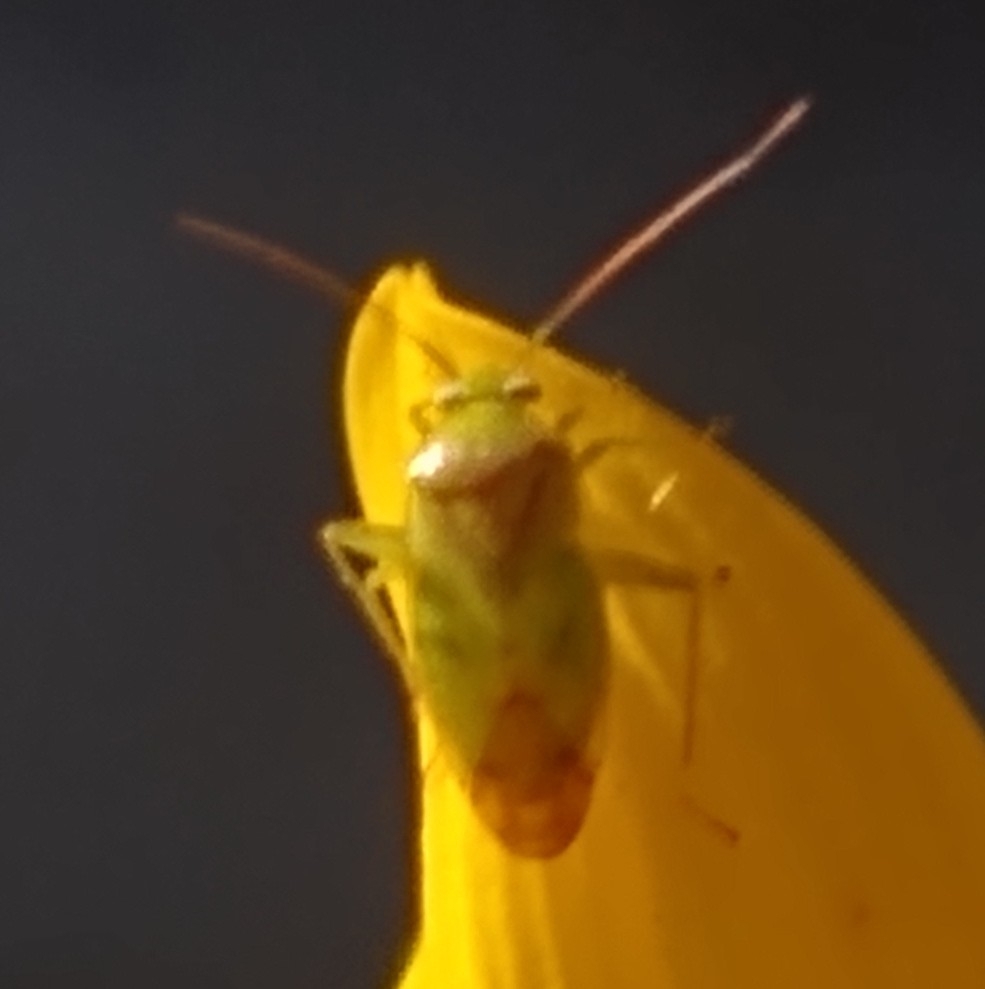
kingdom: Animalia
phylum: Arthropoda
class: Insecta
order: Hemiptera
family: Miridae
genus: Taylorilygus
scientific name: Taylorilygus apicalis
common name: Plant bug
